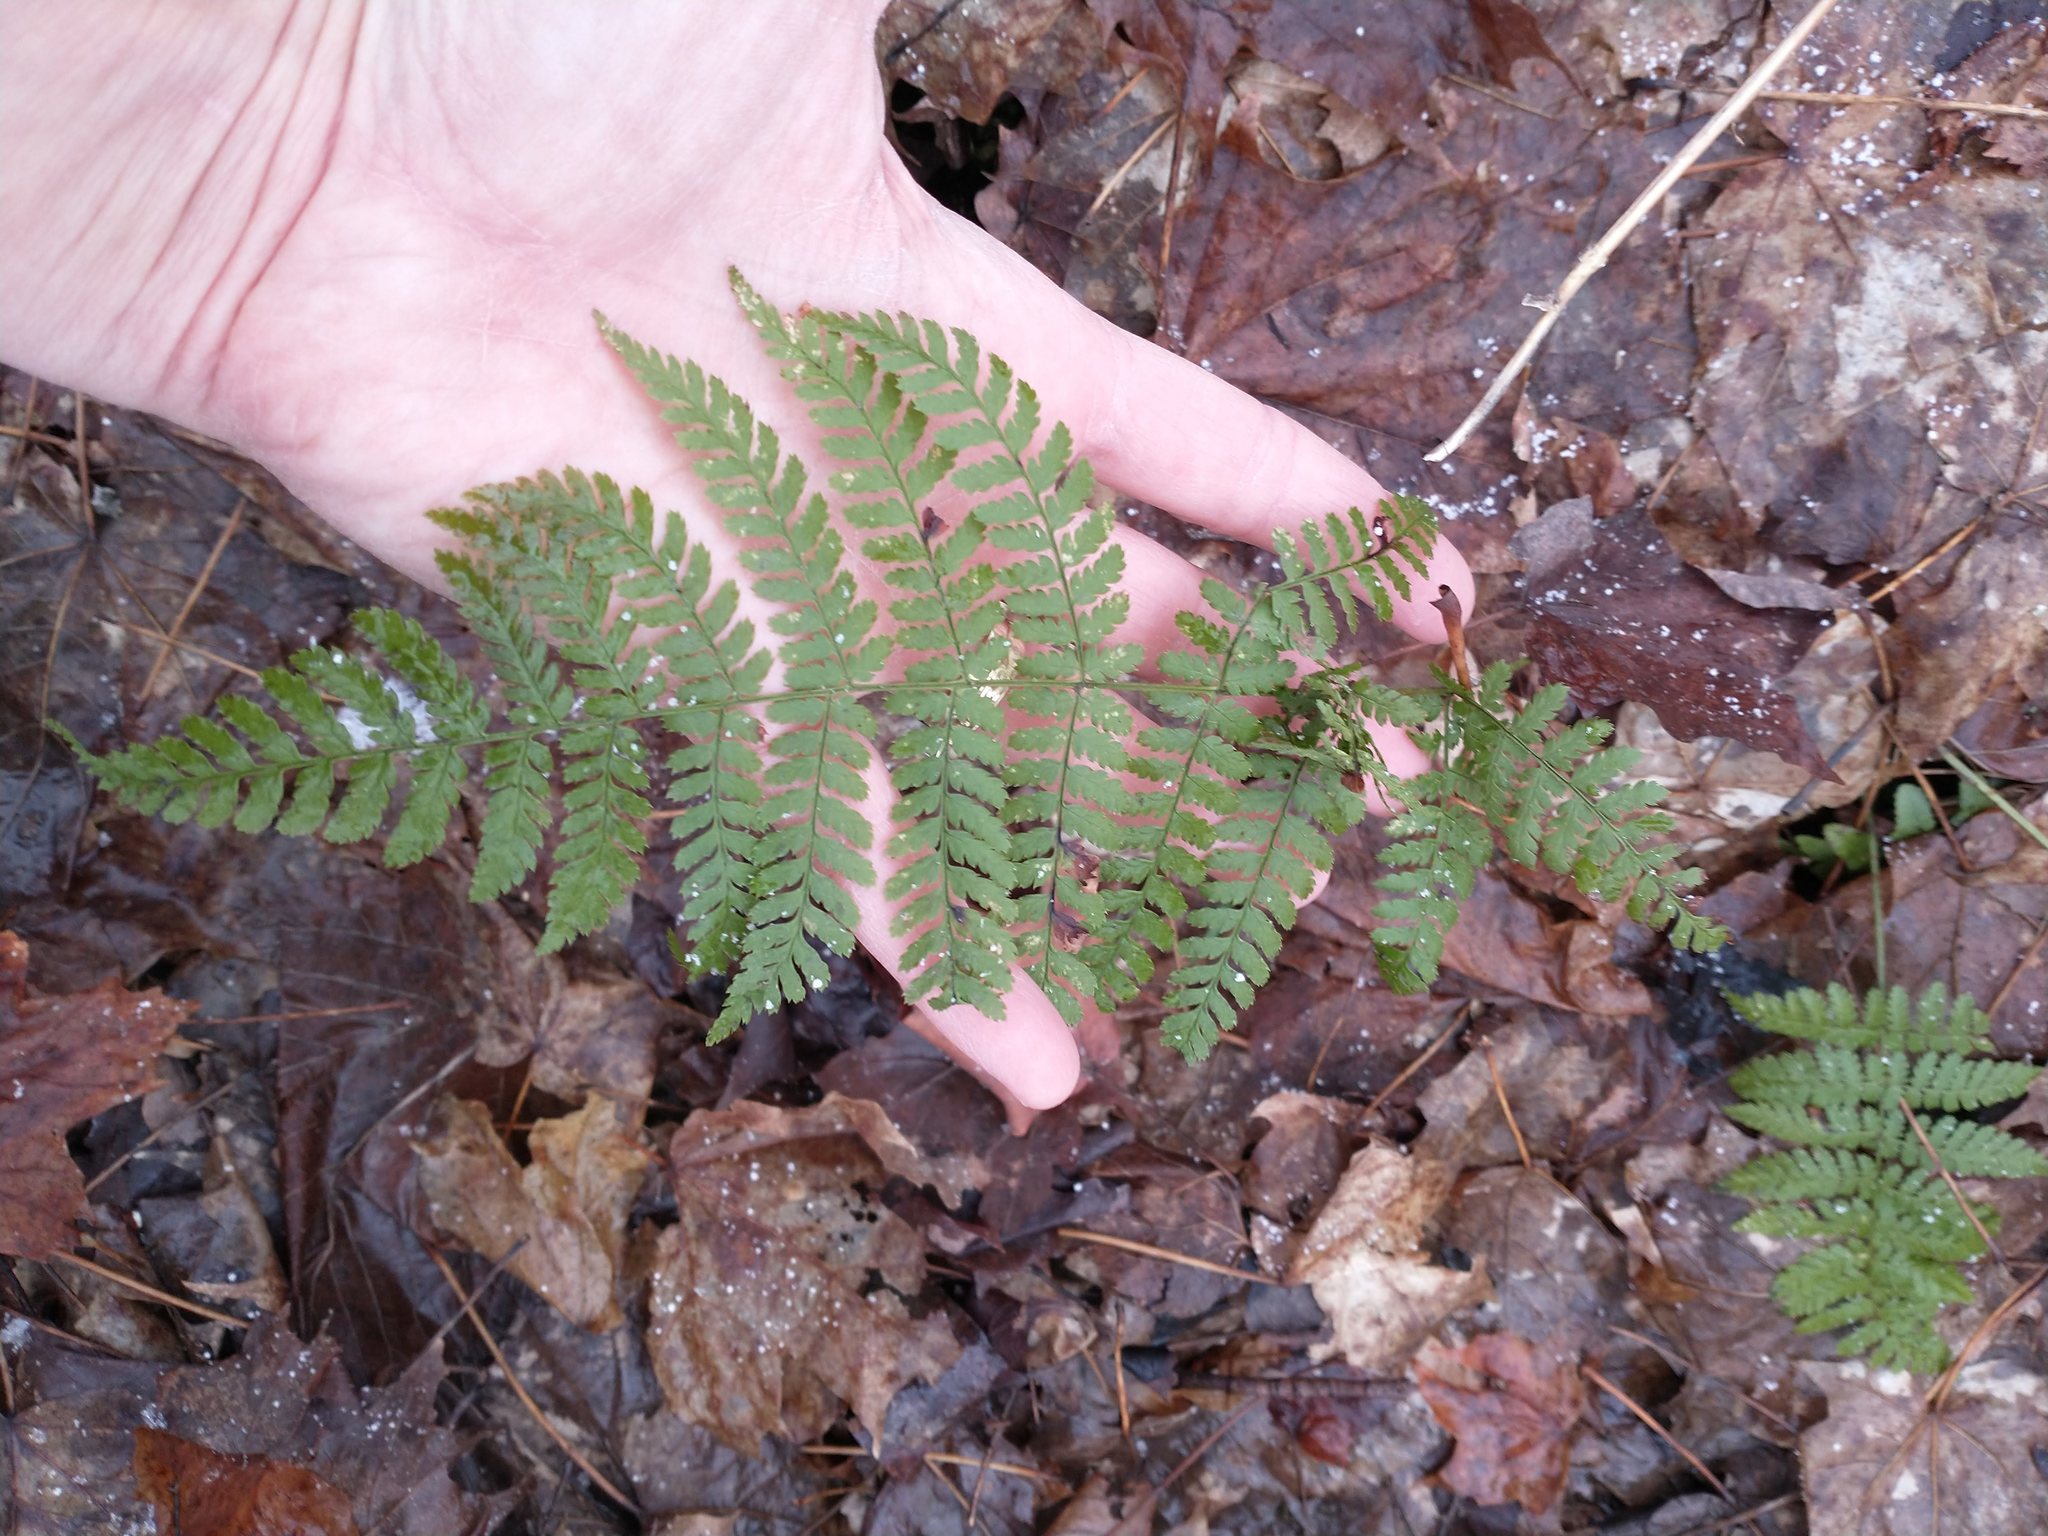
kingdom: Plantae
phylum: Tracheophyta
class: Polypodiopsida
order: Polypodiales
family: Dryopteridaceae
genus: Dryopteris
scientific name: Dryopteris intermedia
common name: Evergreen wood fern
